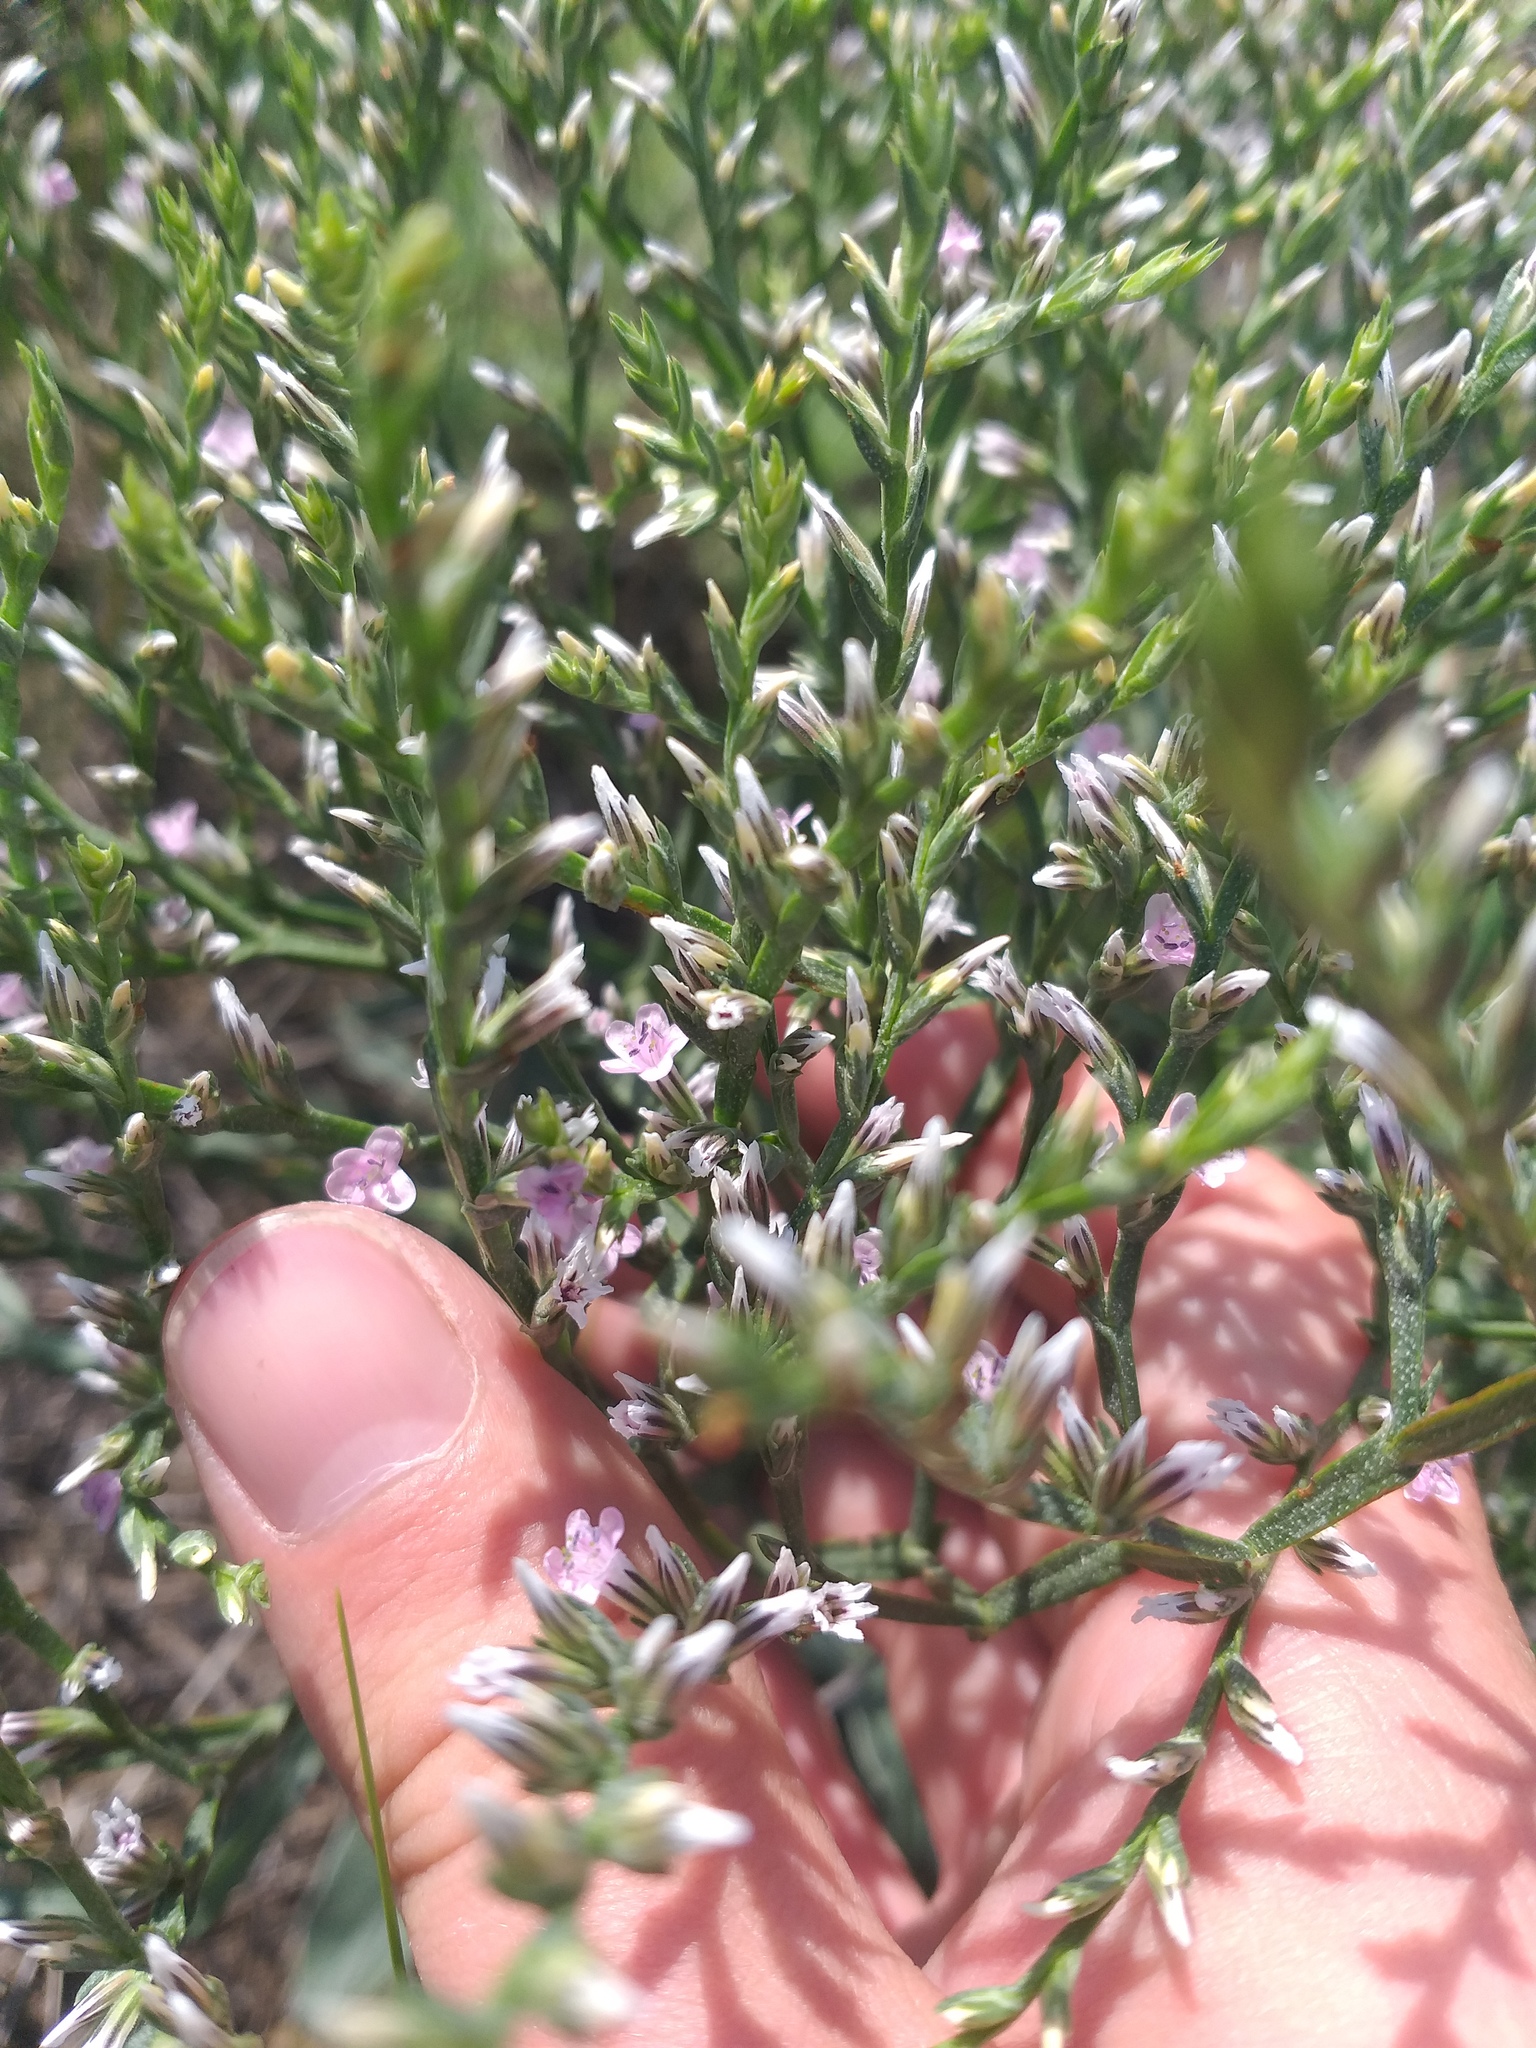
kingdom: Plantae
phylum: Tracheophyta
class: Magnoliopsida
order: Caryophyllales
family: Plumbaginaceae
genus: Goniolimon
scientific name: Goniolimon tataricum
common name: Statice
